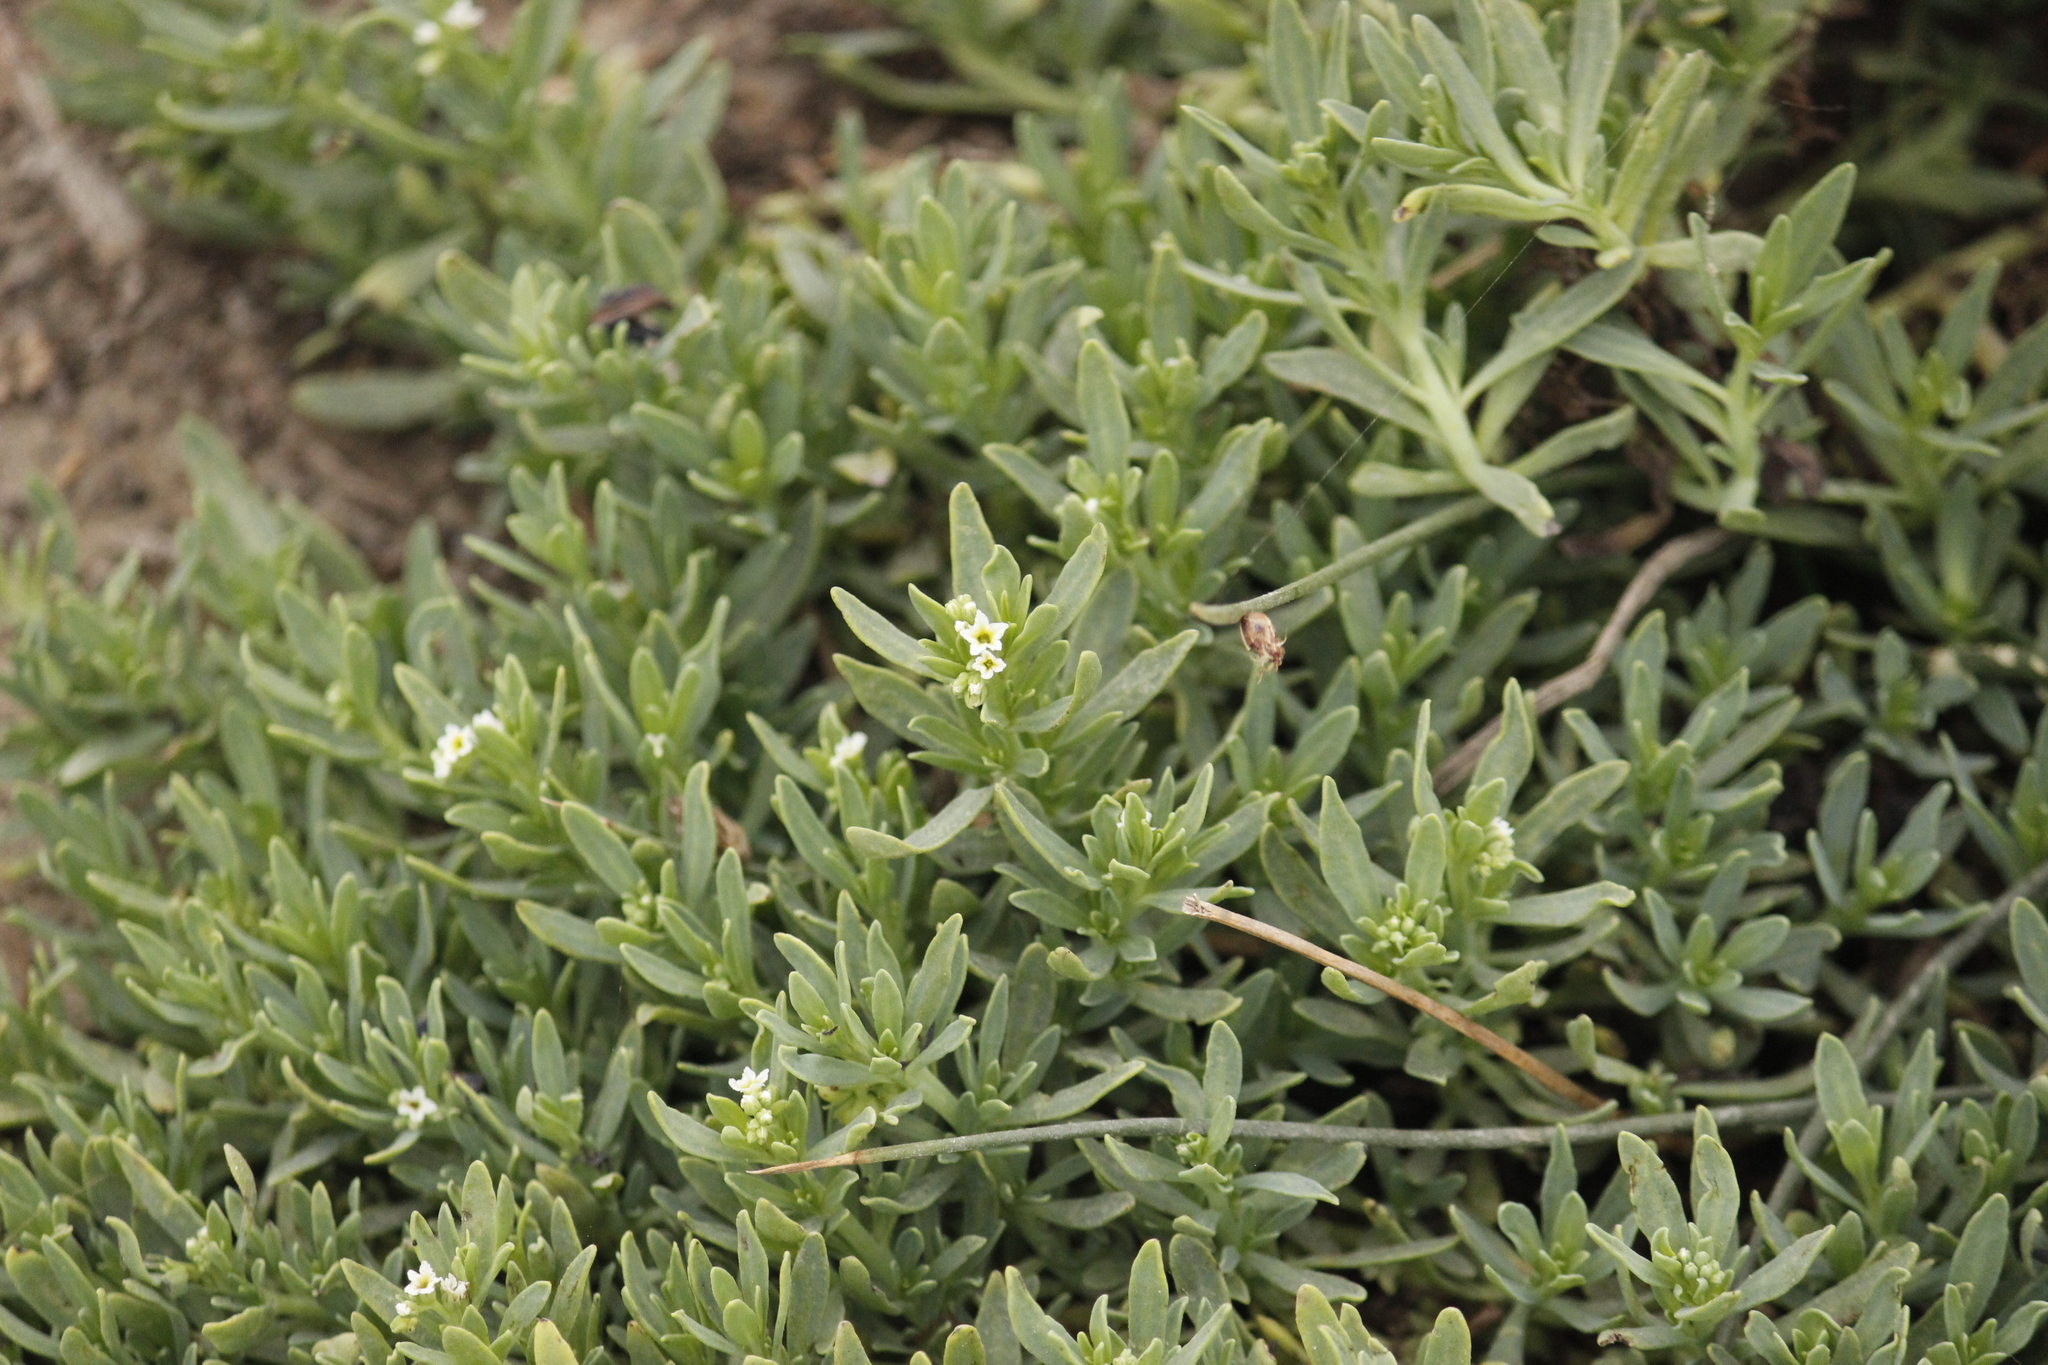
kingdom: Plantae
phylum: Tracheophyta
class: Magnoliopsida
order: Boraginales
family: Heliotropiaceae
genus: Heliotropium
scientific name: Heliotropium curassavicum
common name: Seaside heliotrope
